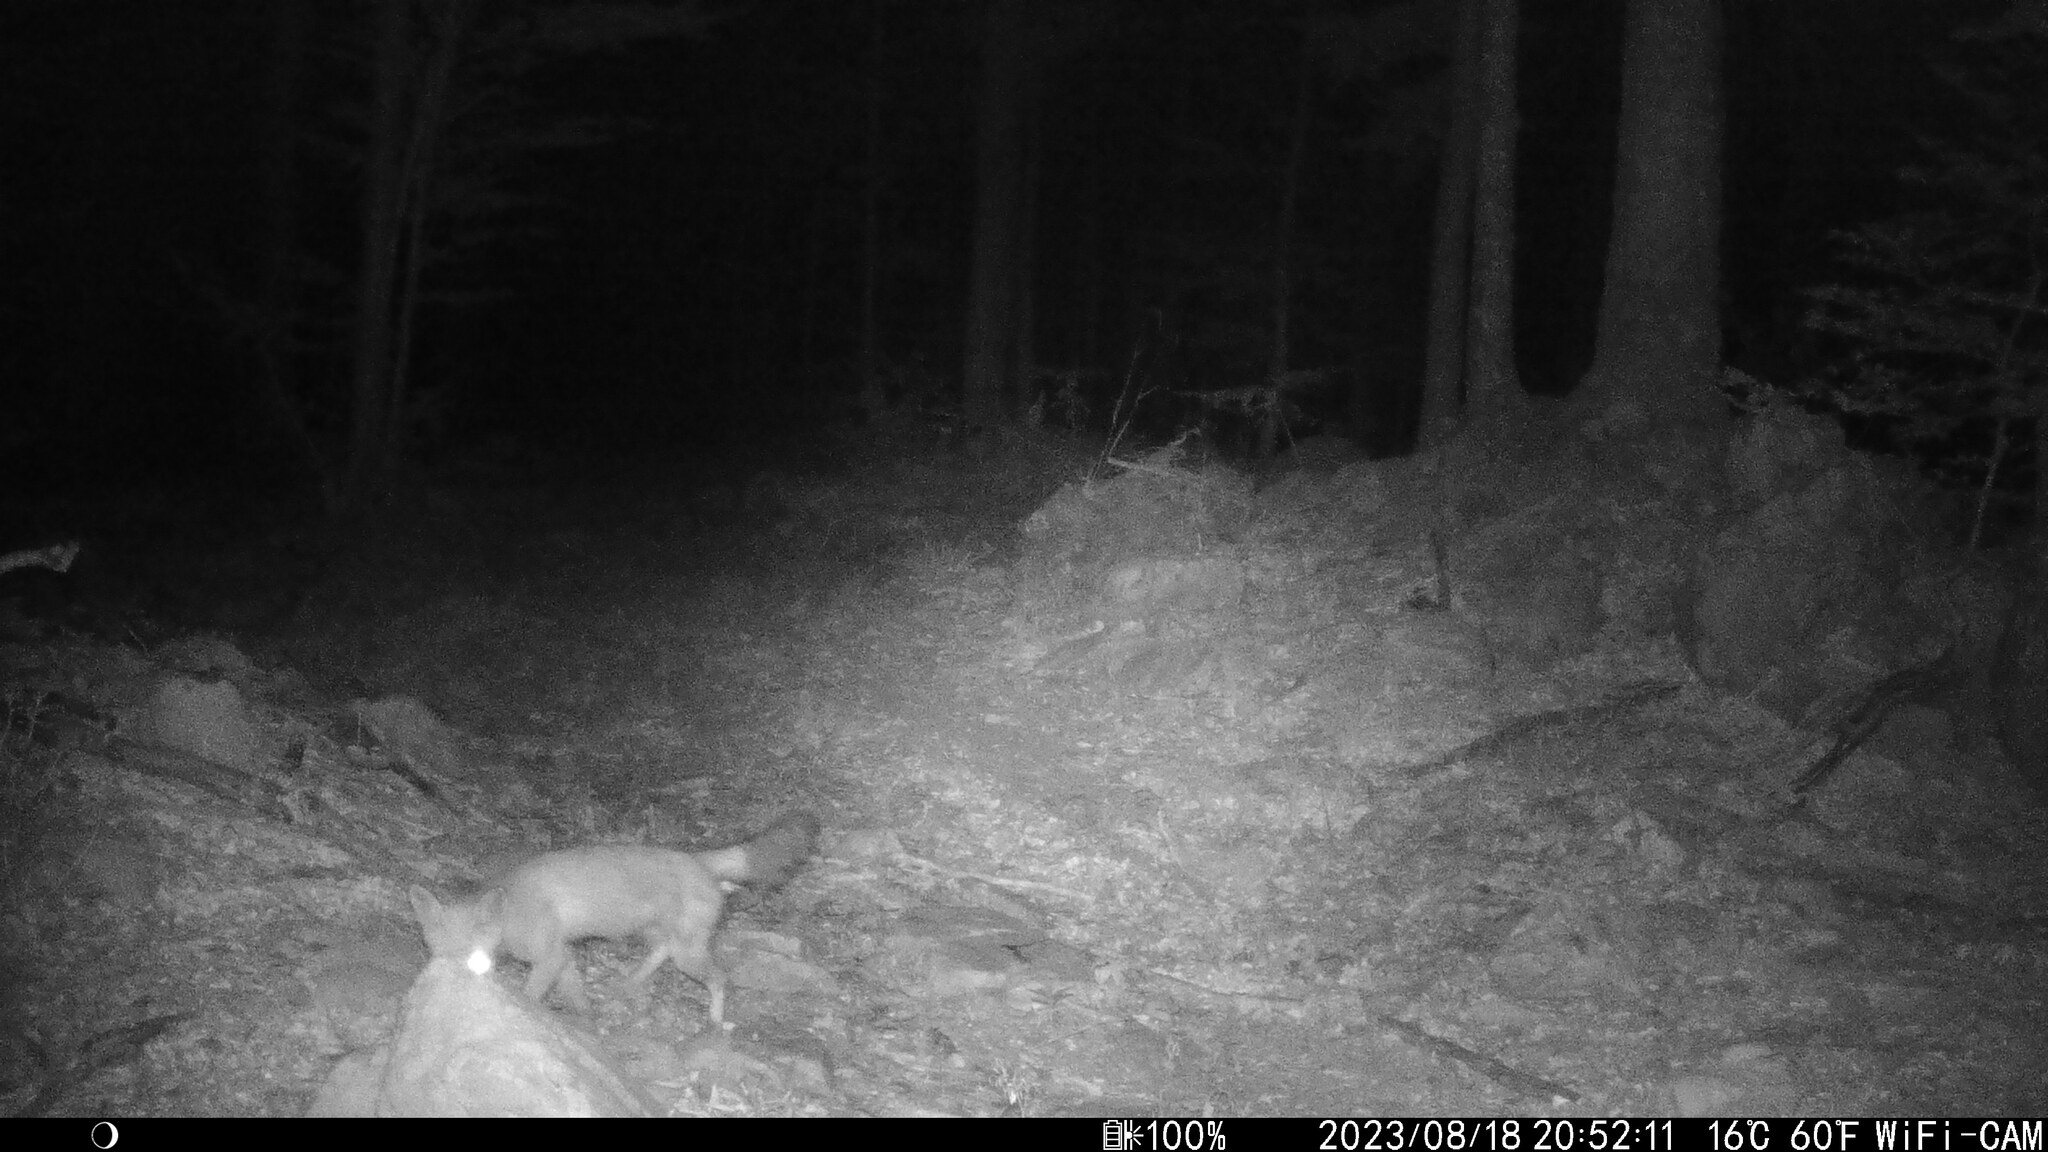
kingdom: Animalia
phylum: Chordata
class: Mammalia
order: Carnivora
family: Canidae
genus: Vulpes
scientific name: Vulpes vulpes
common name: Red fox
